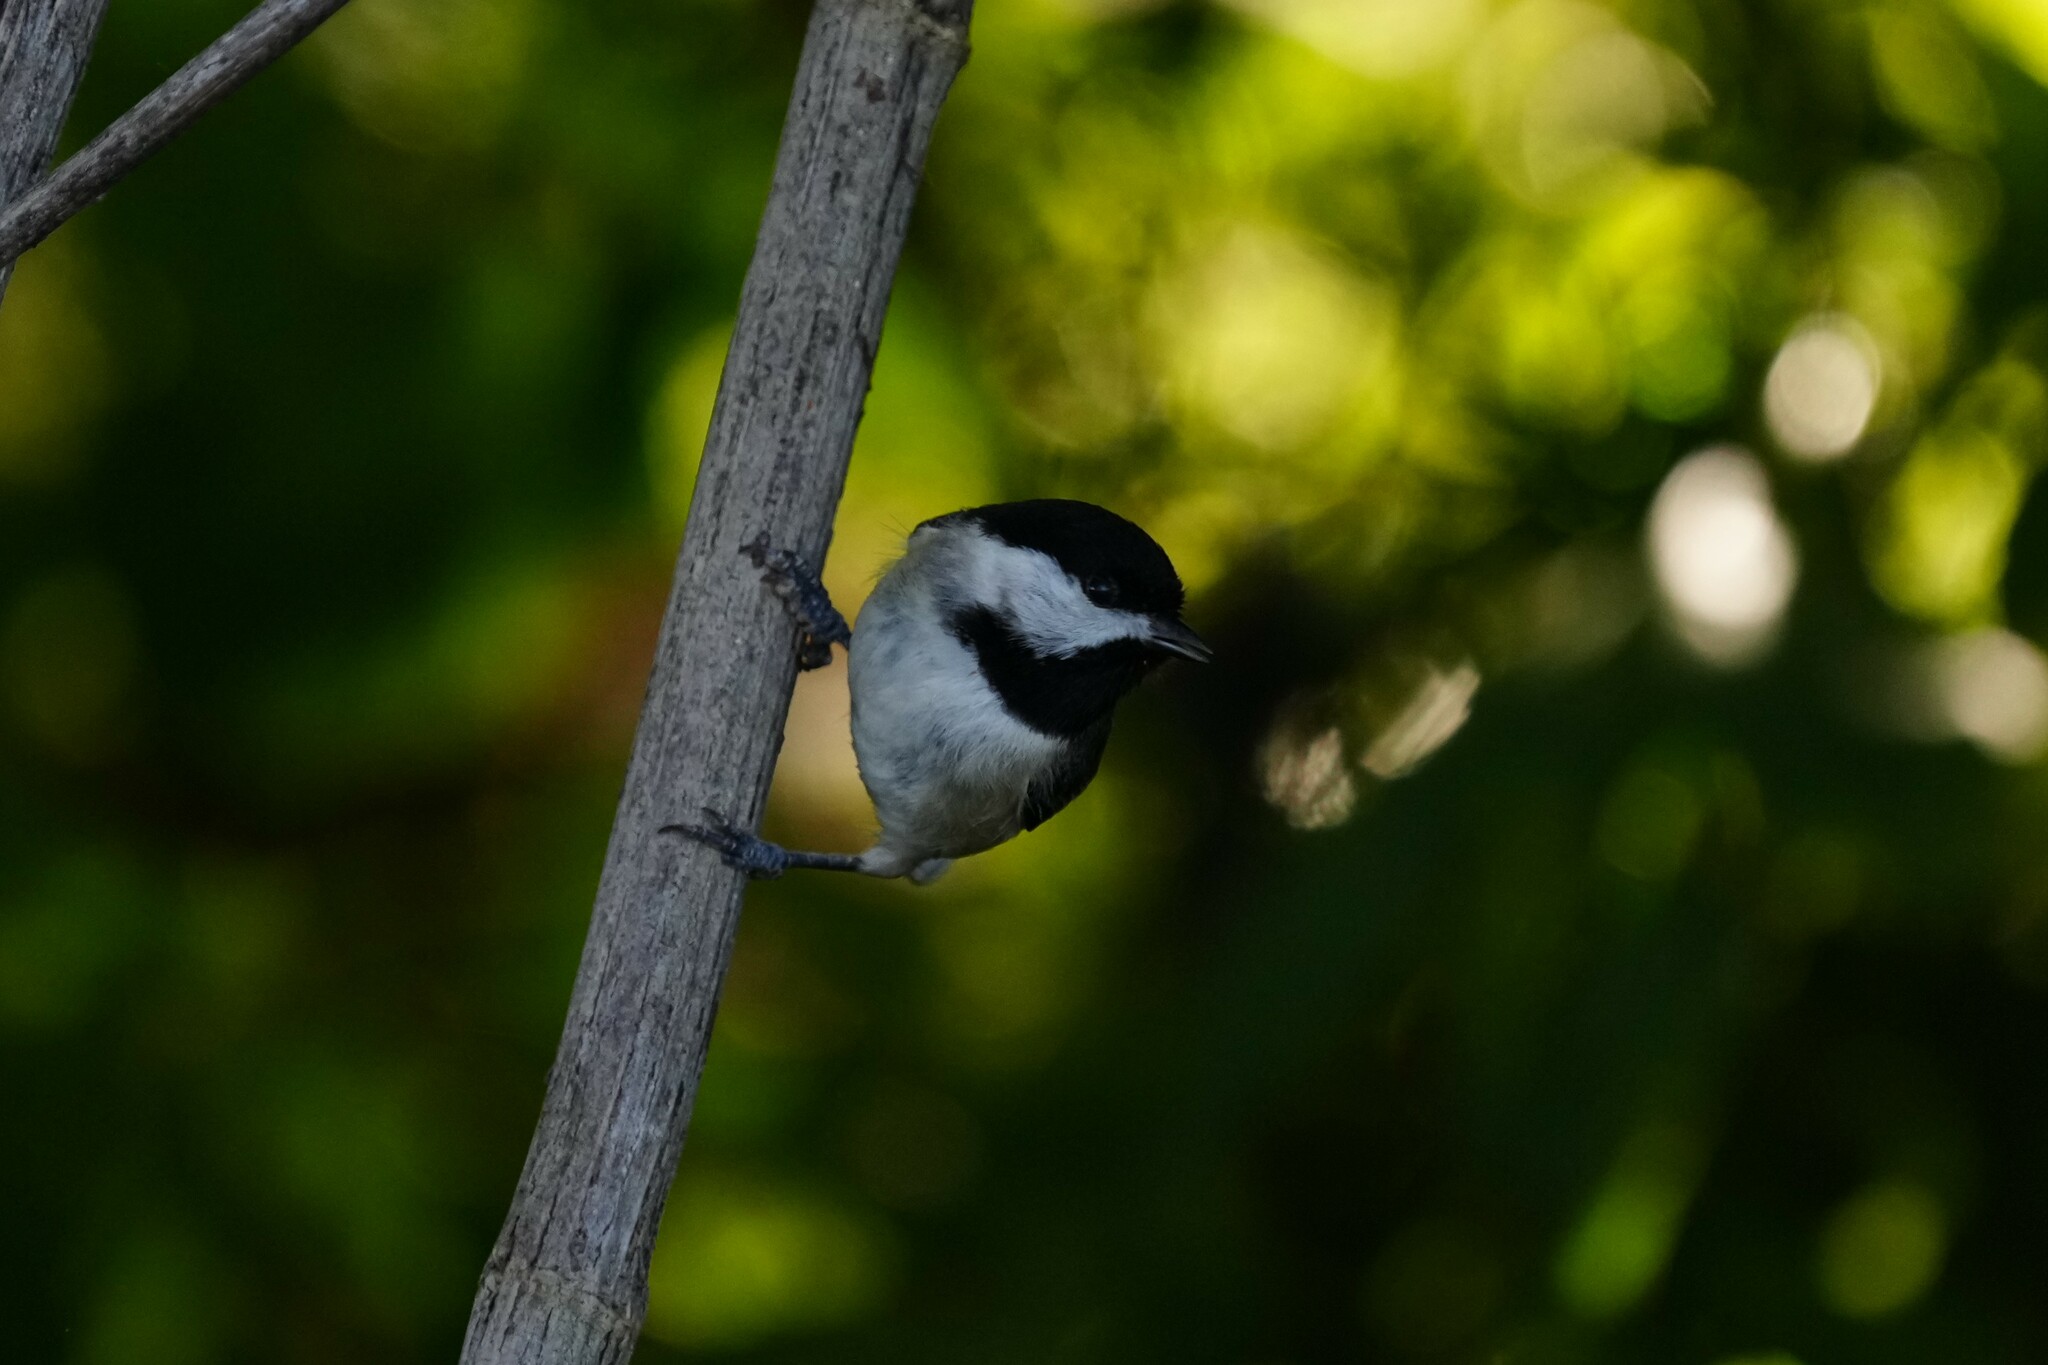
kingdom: Animalia
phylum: Chordata
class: Aves
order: Passeriformes
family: Paridae
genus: Poecile
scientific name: Poecile carolinensis
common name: Carolina chickadee
